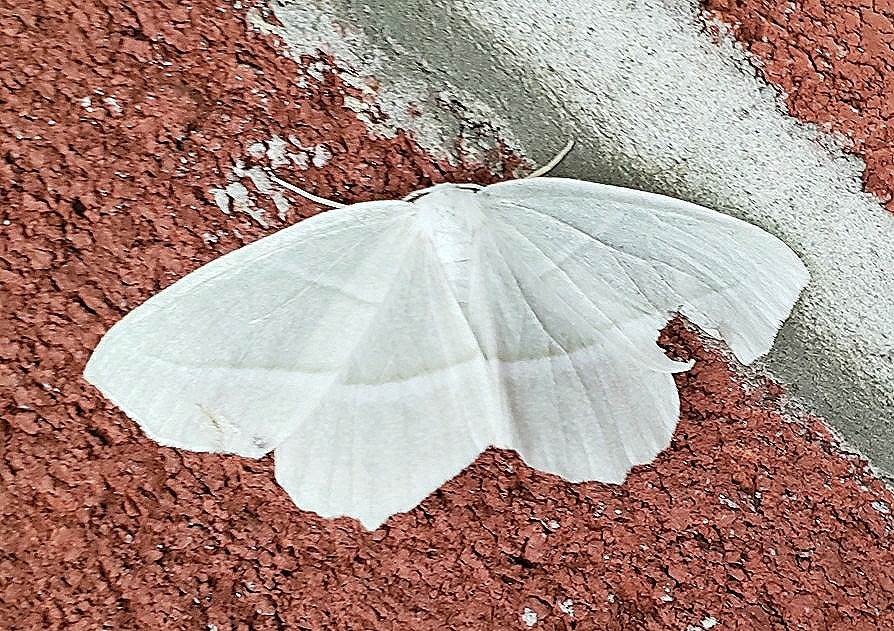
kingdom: Animalia
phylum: Arthropoda
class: Insecta
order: Lepidoptera
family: Geometridae
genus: Campaea
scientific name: Campaea perlata
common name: Fringed looper
